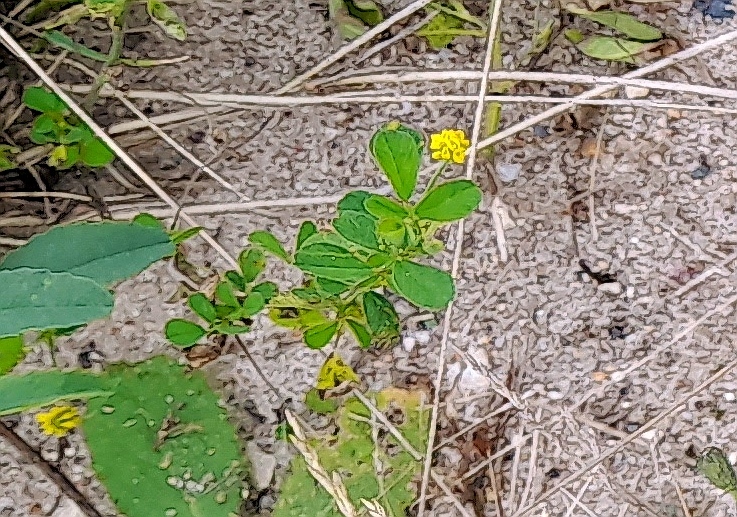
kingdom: Plantae
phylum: Tracheophyta
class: Magnoliopsida
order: Fabales
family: Fabaceae
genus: Medicago
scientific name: Medicago lupulina
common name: Black medick
